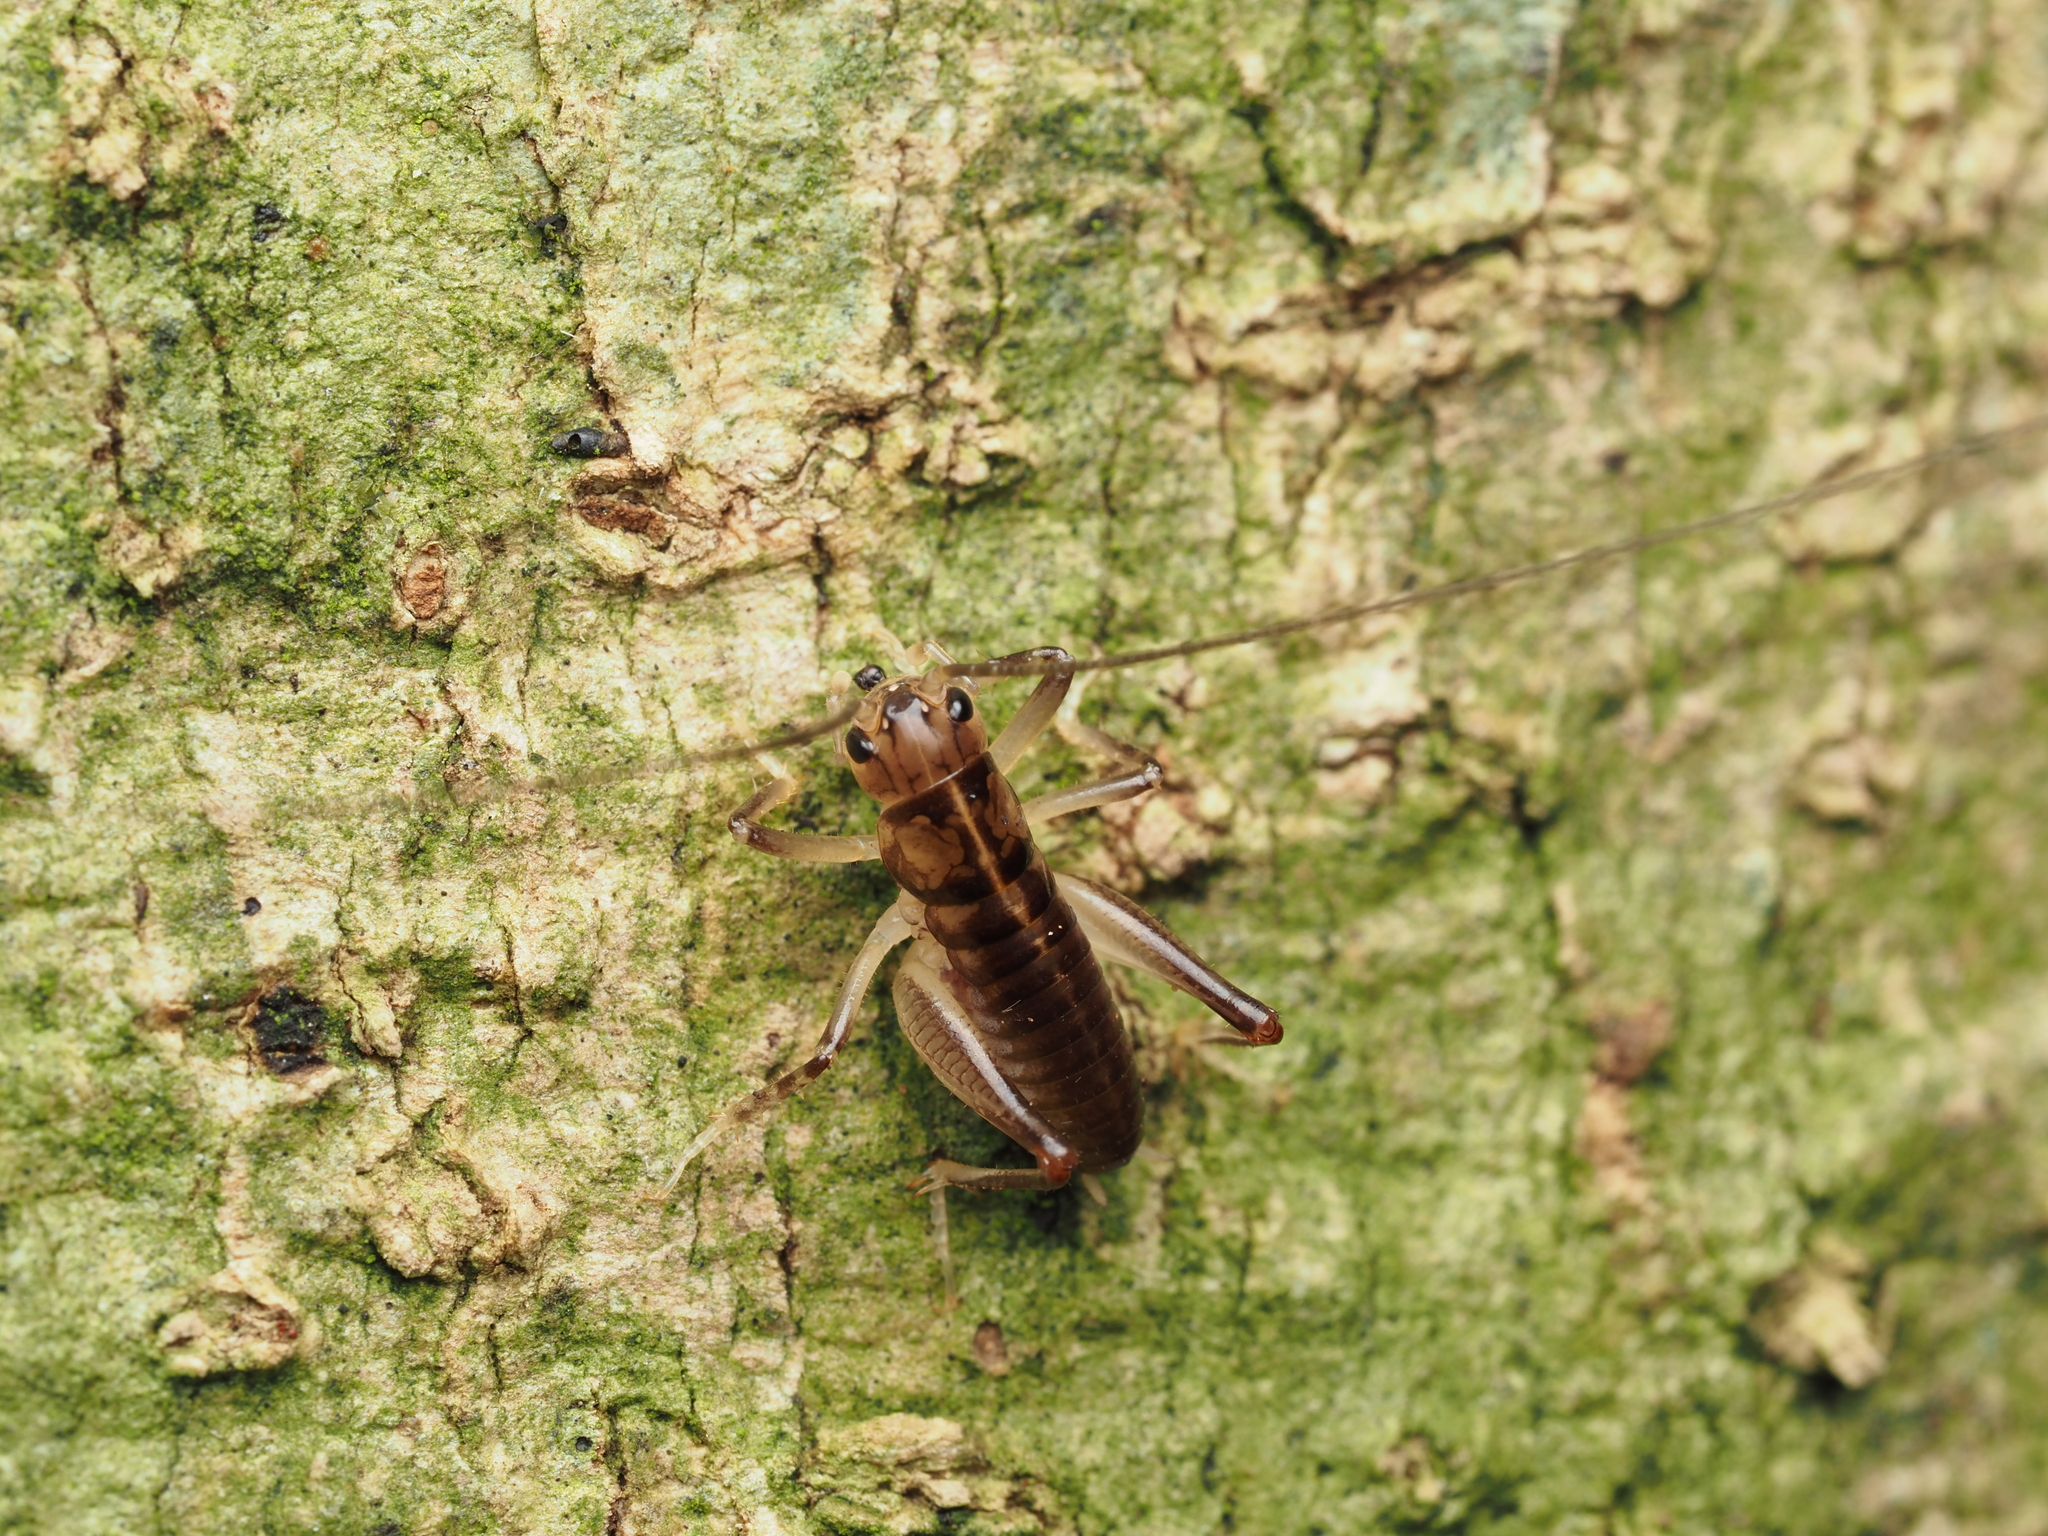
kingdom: Animalia
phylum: Arthropoda
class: Insecta
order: Orthoptera
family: Anostostomatidae
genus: Hemiandrus
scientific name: Hemiandrus pallitarsis
